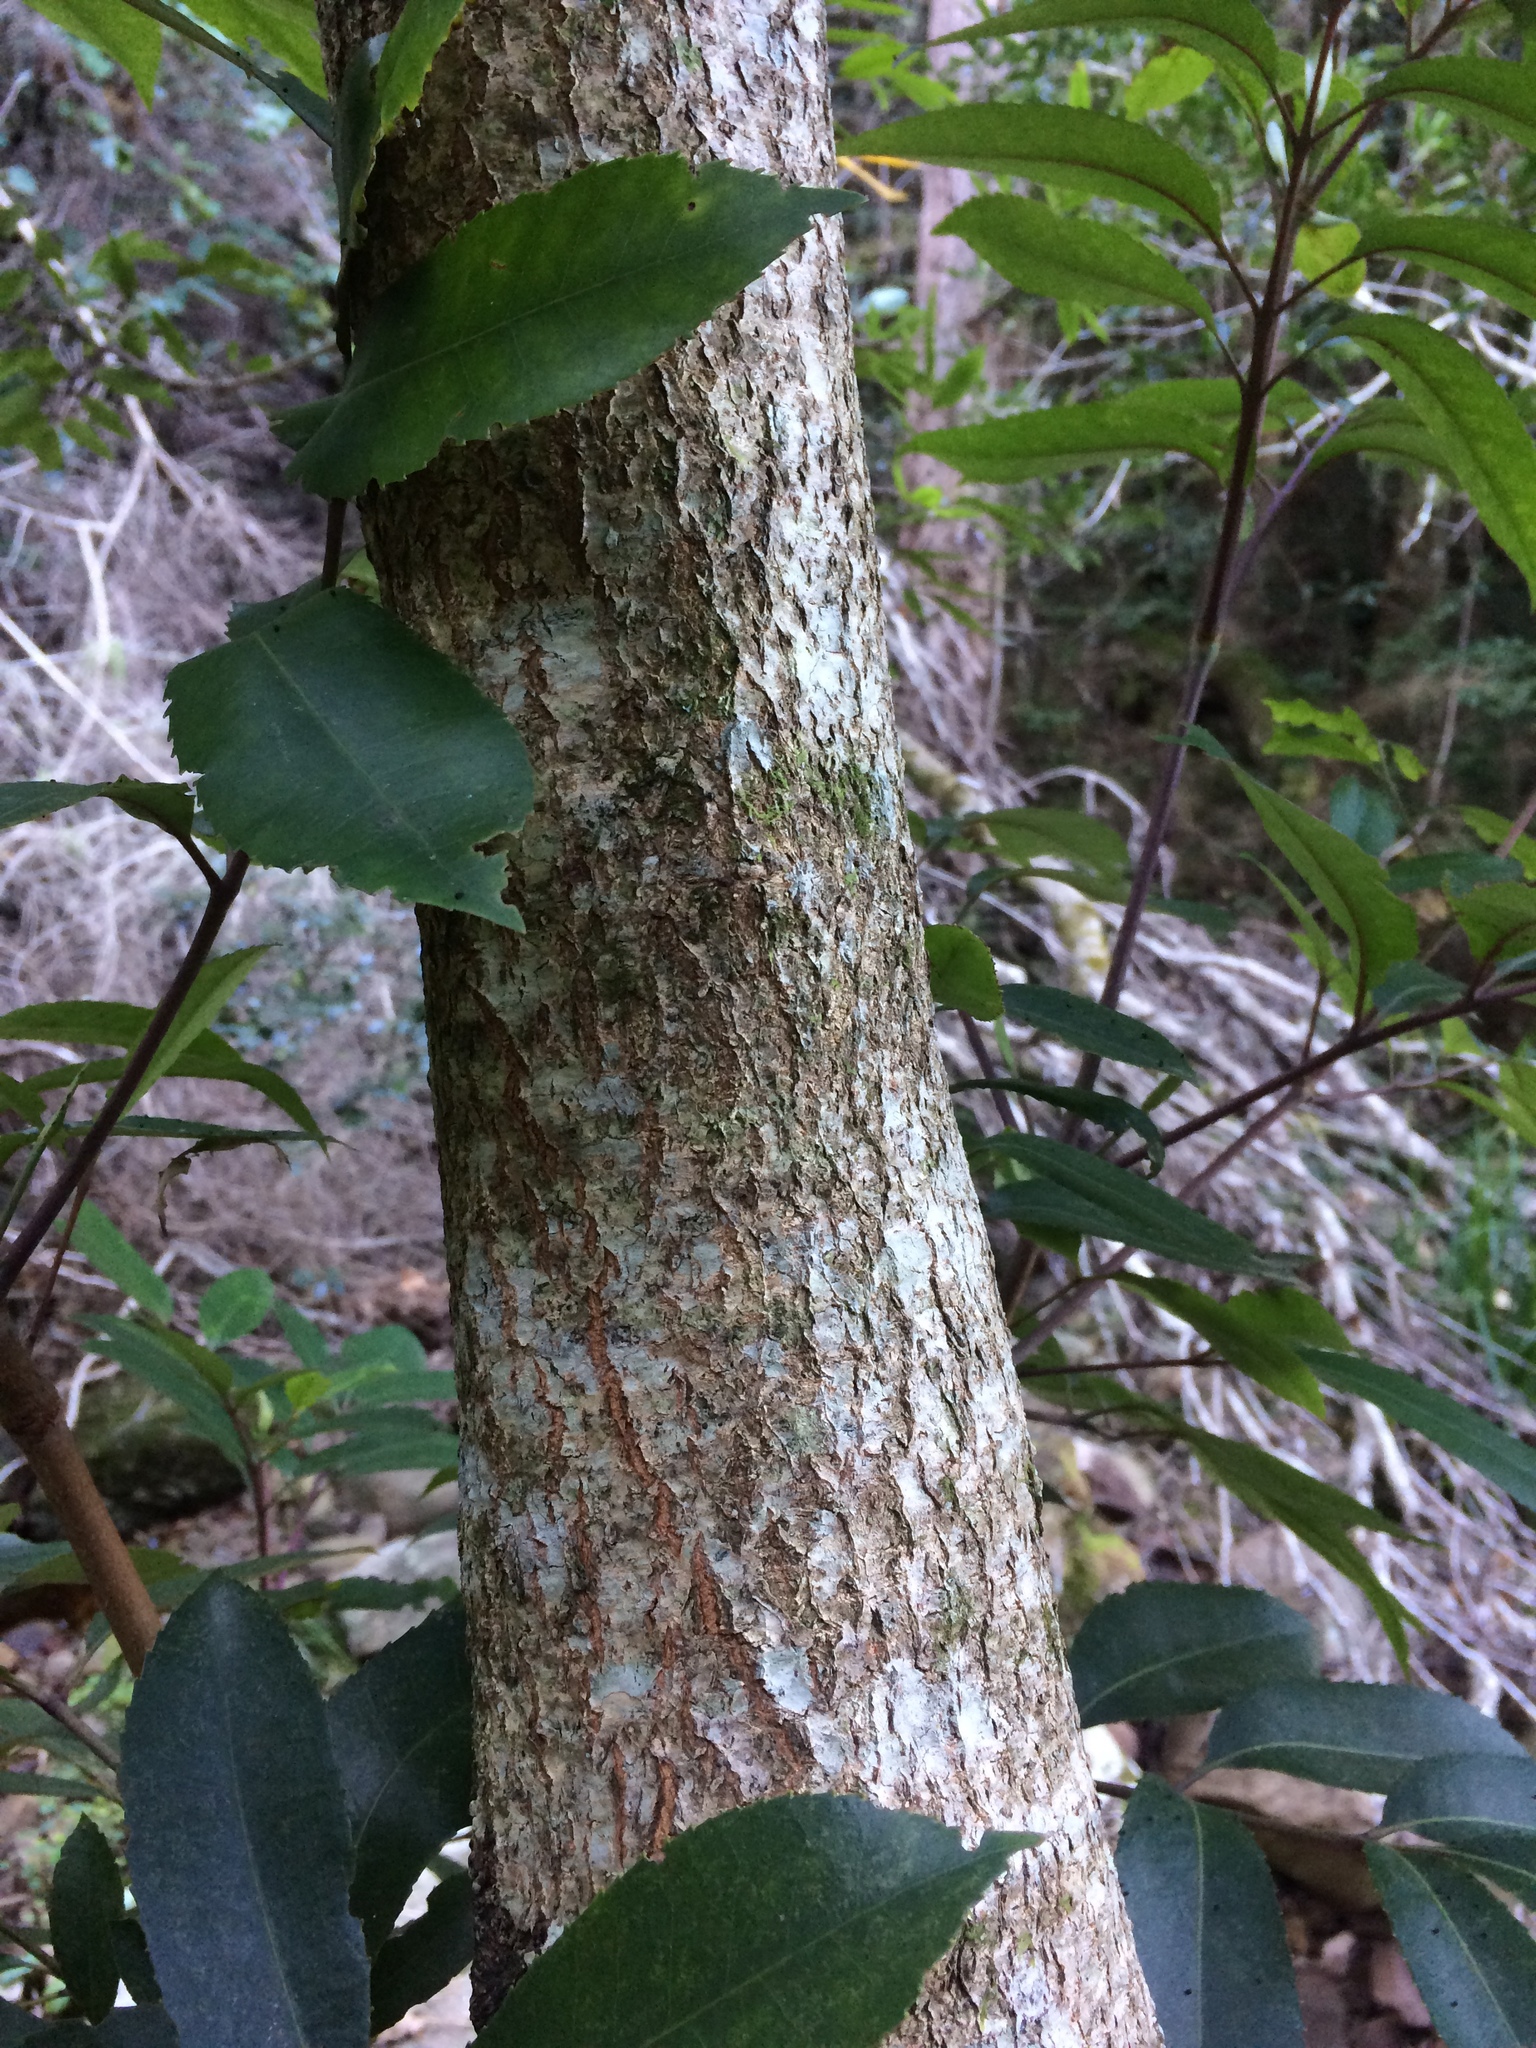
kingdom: Plantae
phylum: Tracheophyta
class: Magnoliopsida
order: Oxalidales
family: Cunoniaceae
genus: Cunonia
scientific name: Cunonia capensis
